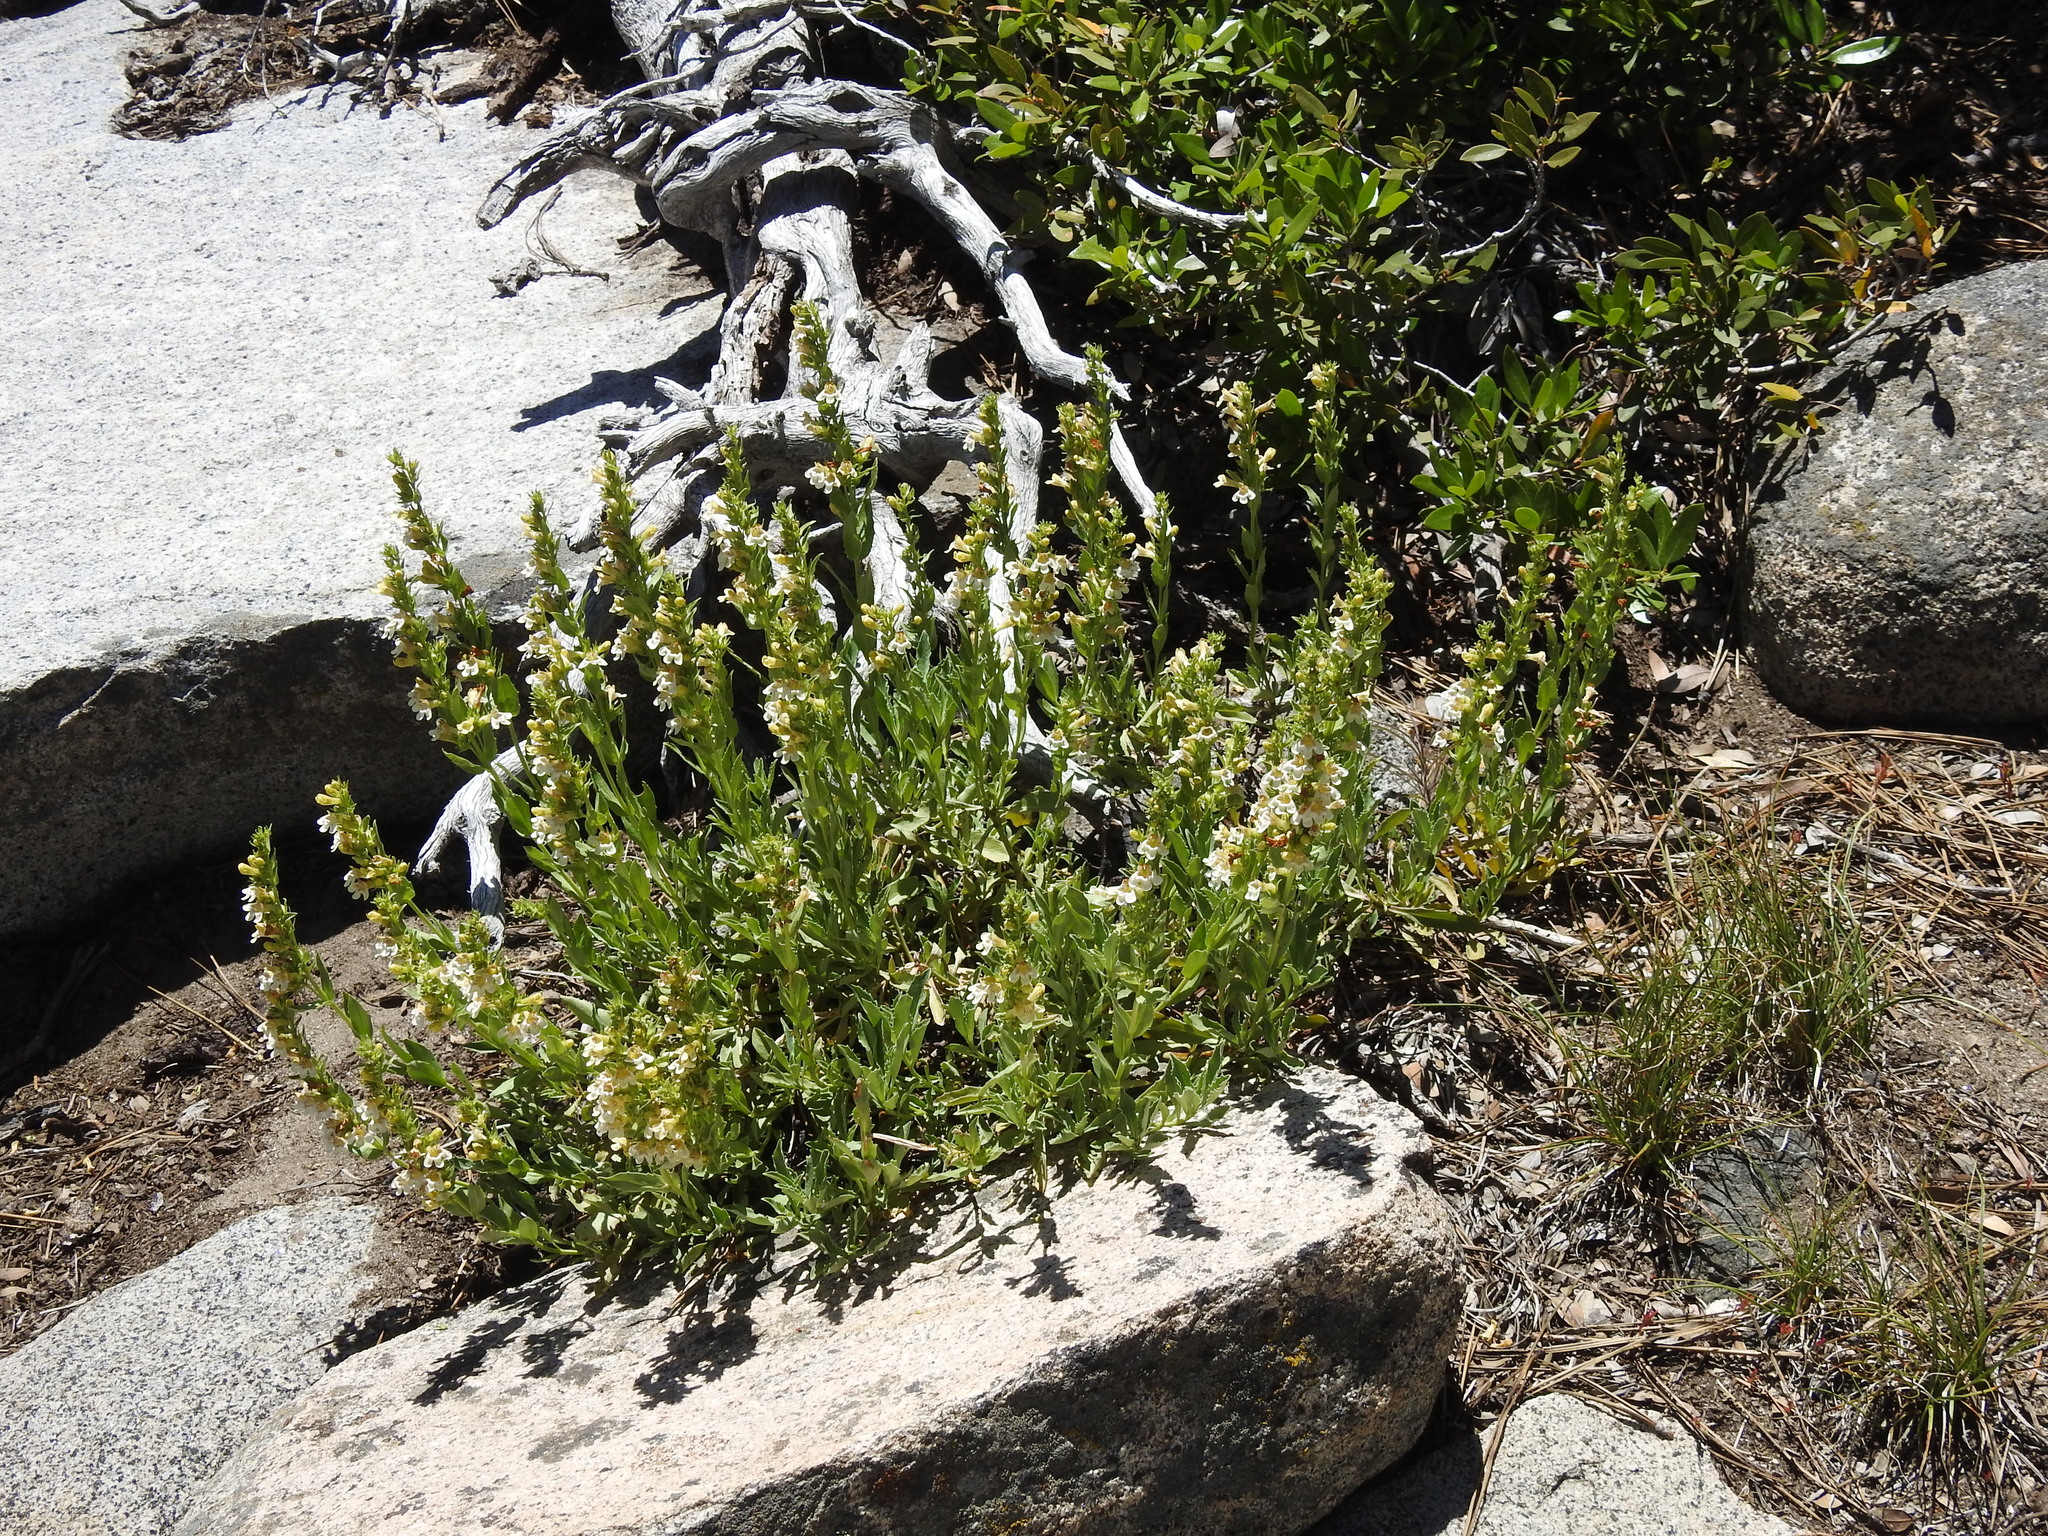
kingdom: Plantae
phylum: Tracheophyta
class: Magnoliopsida
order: Lamiales
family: Plantaginaceae
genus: Penstemon
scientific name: Penstemon deustus
